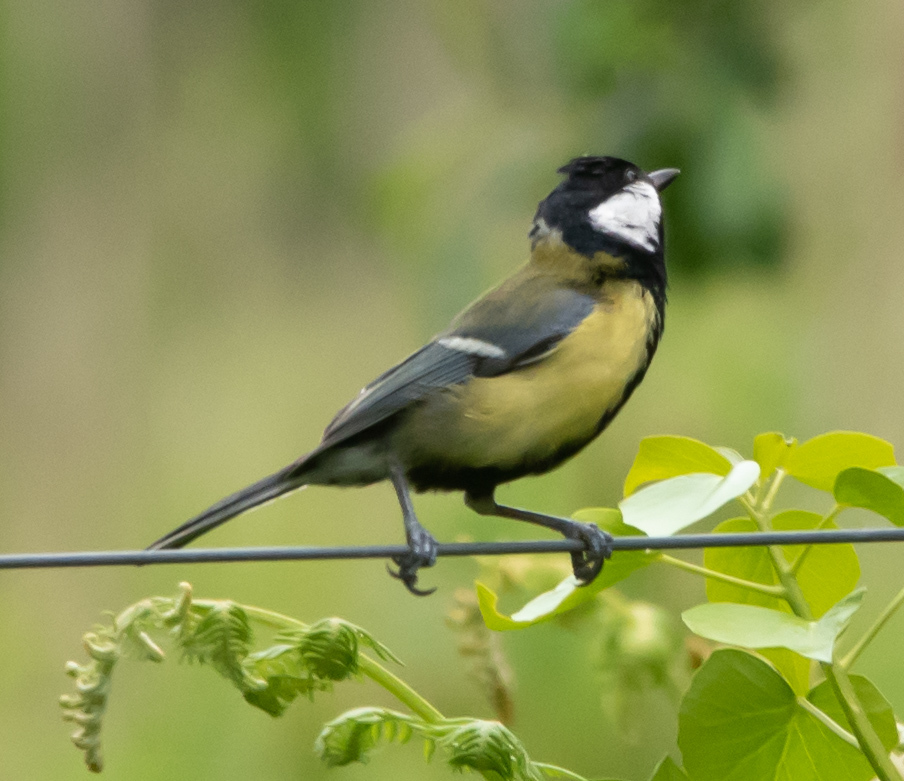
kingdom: Animalia
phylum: Chordata
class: Aves
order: Passeriformes
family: Paridae
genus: Parus
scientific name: Parus major
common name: Great tit
